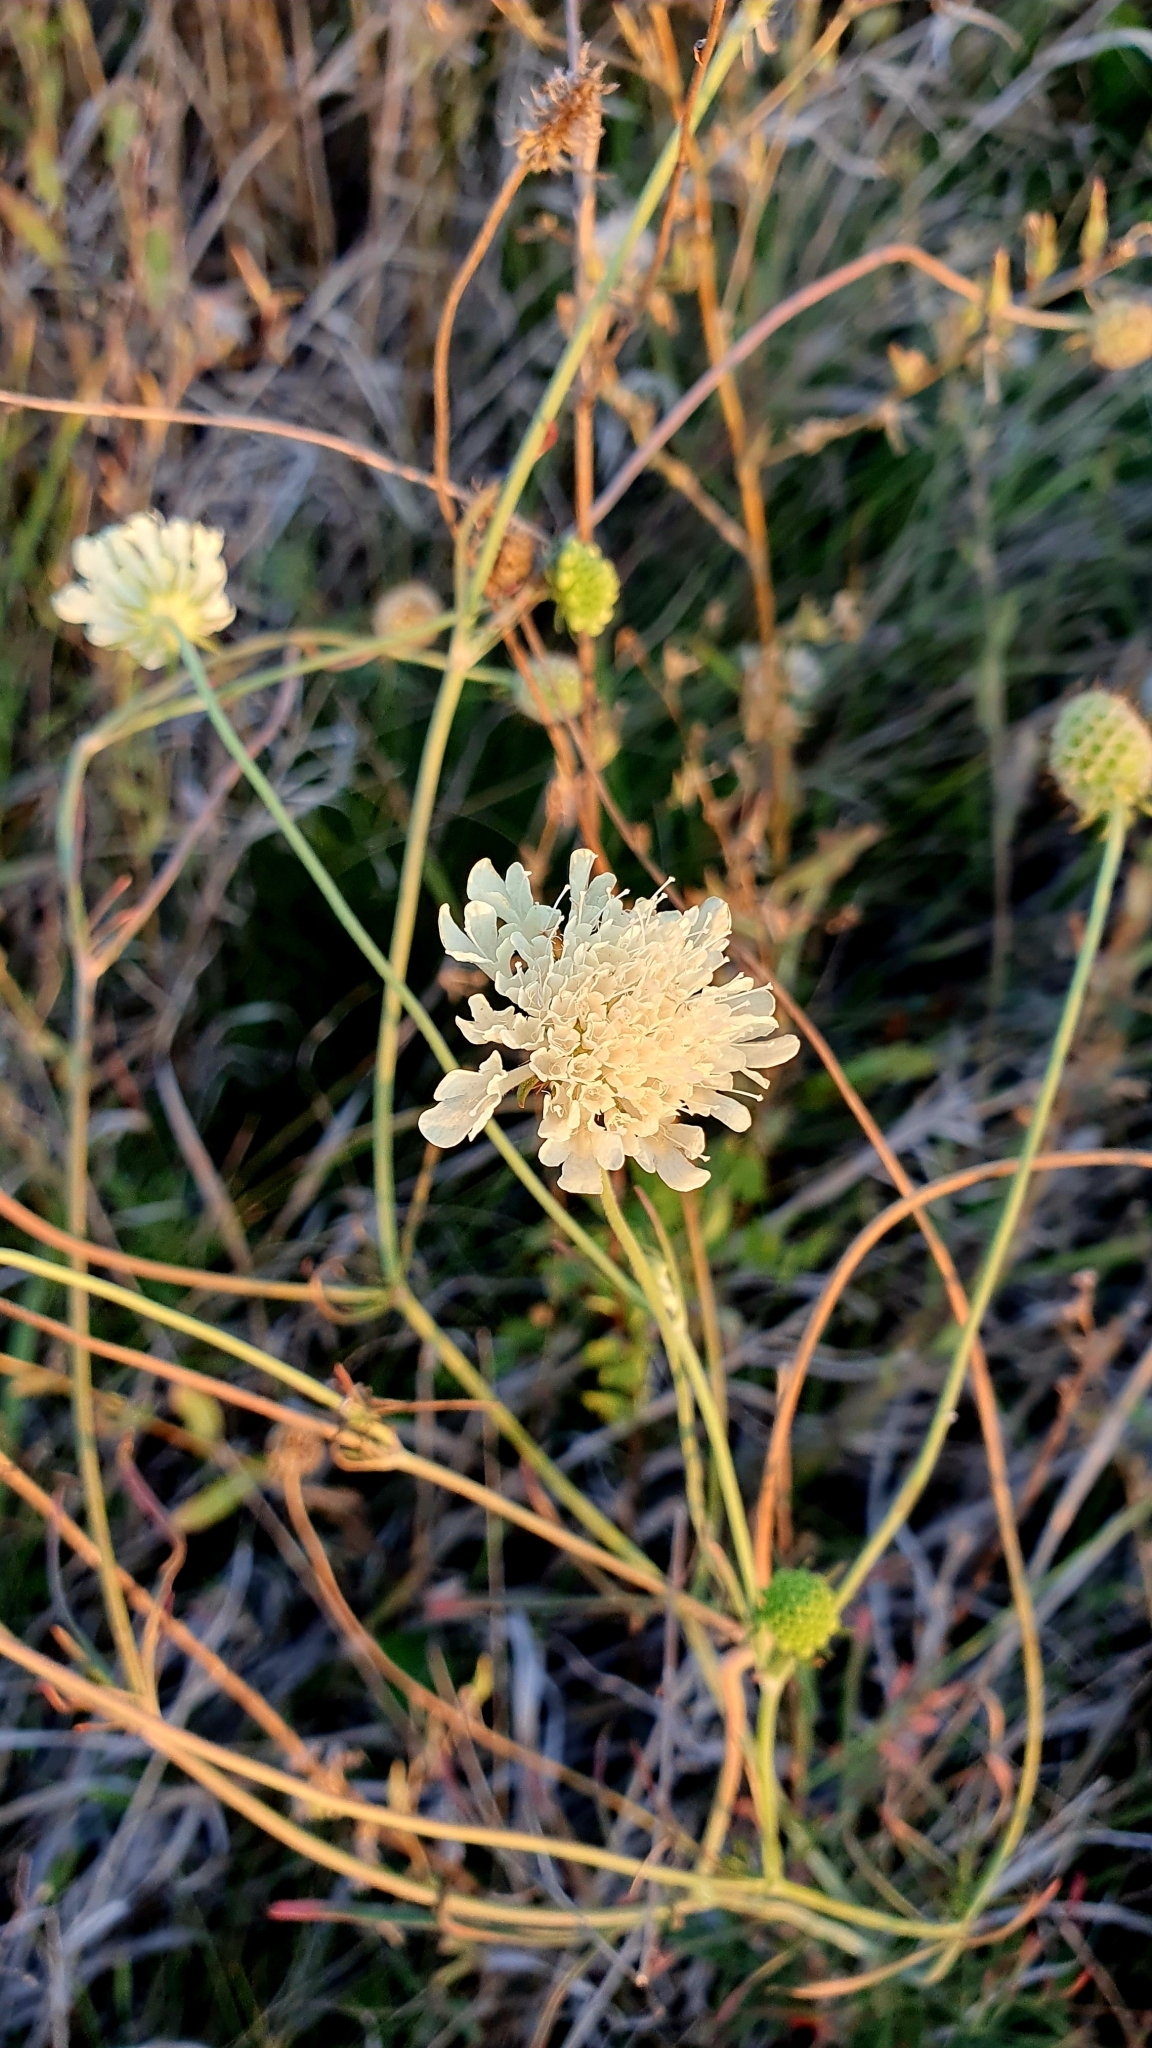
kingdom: Plantae
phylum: Tracheophyta
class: Magnoliopsida
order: Dipsacales
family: Caprifoliaceae
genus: Scabiosa
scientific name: Scabiosa ochroleuca
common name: Cream pincushions
